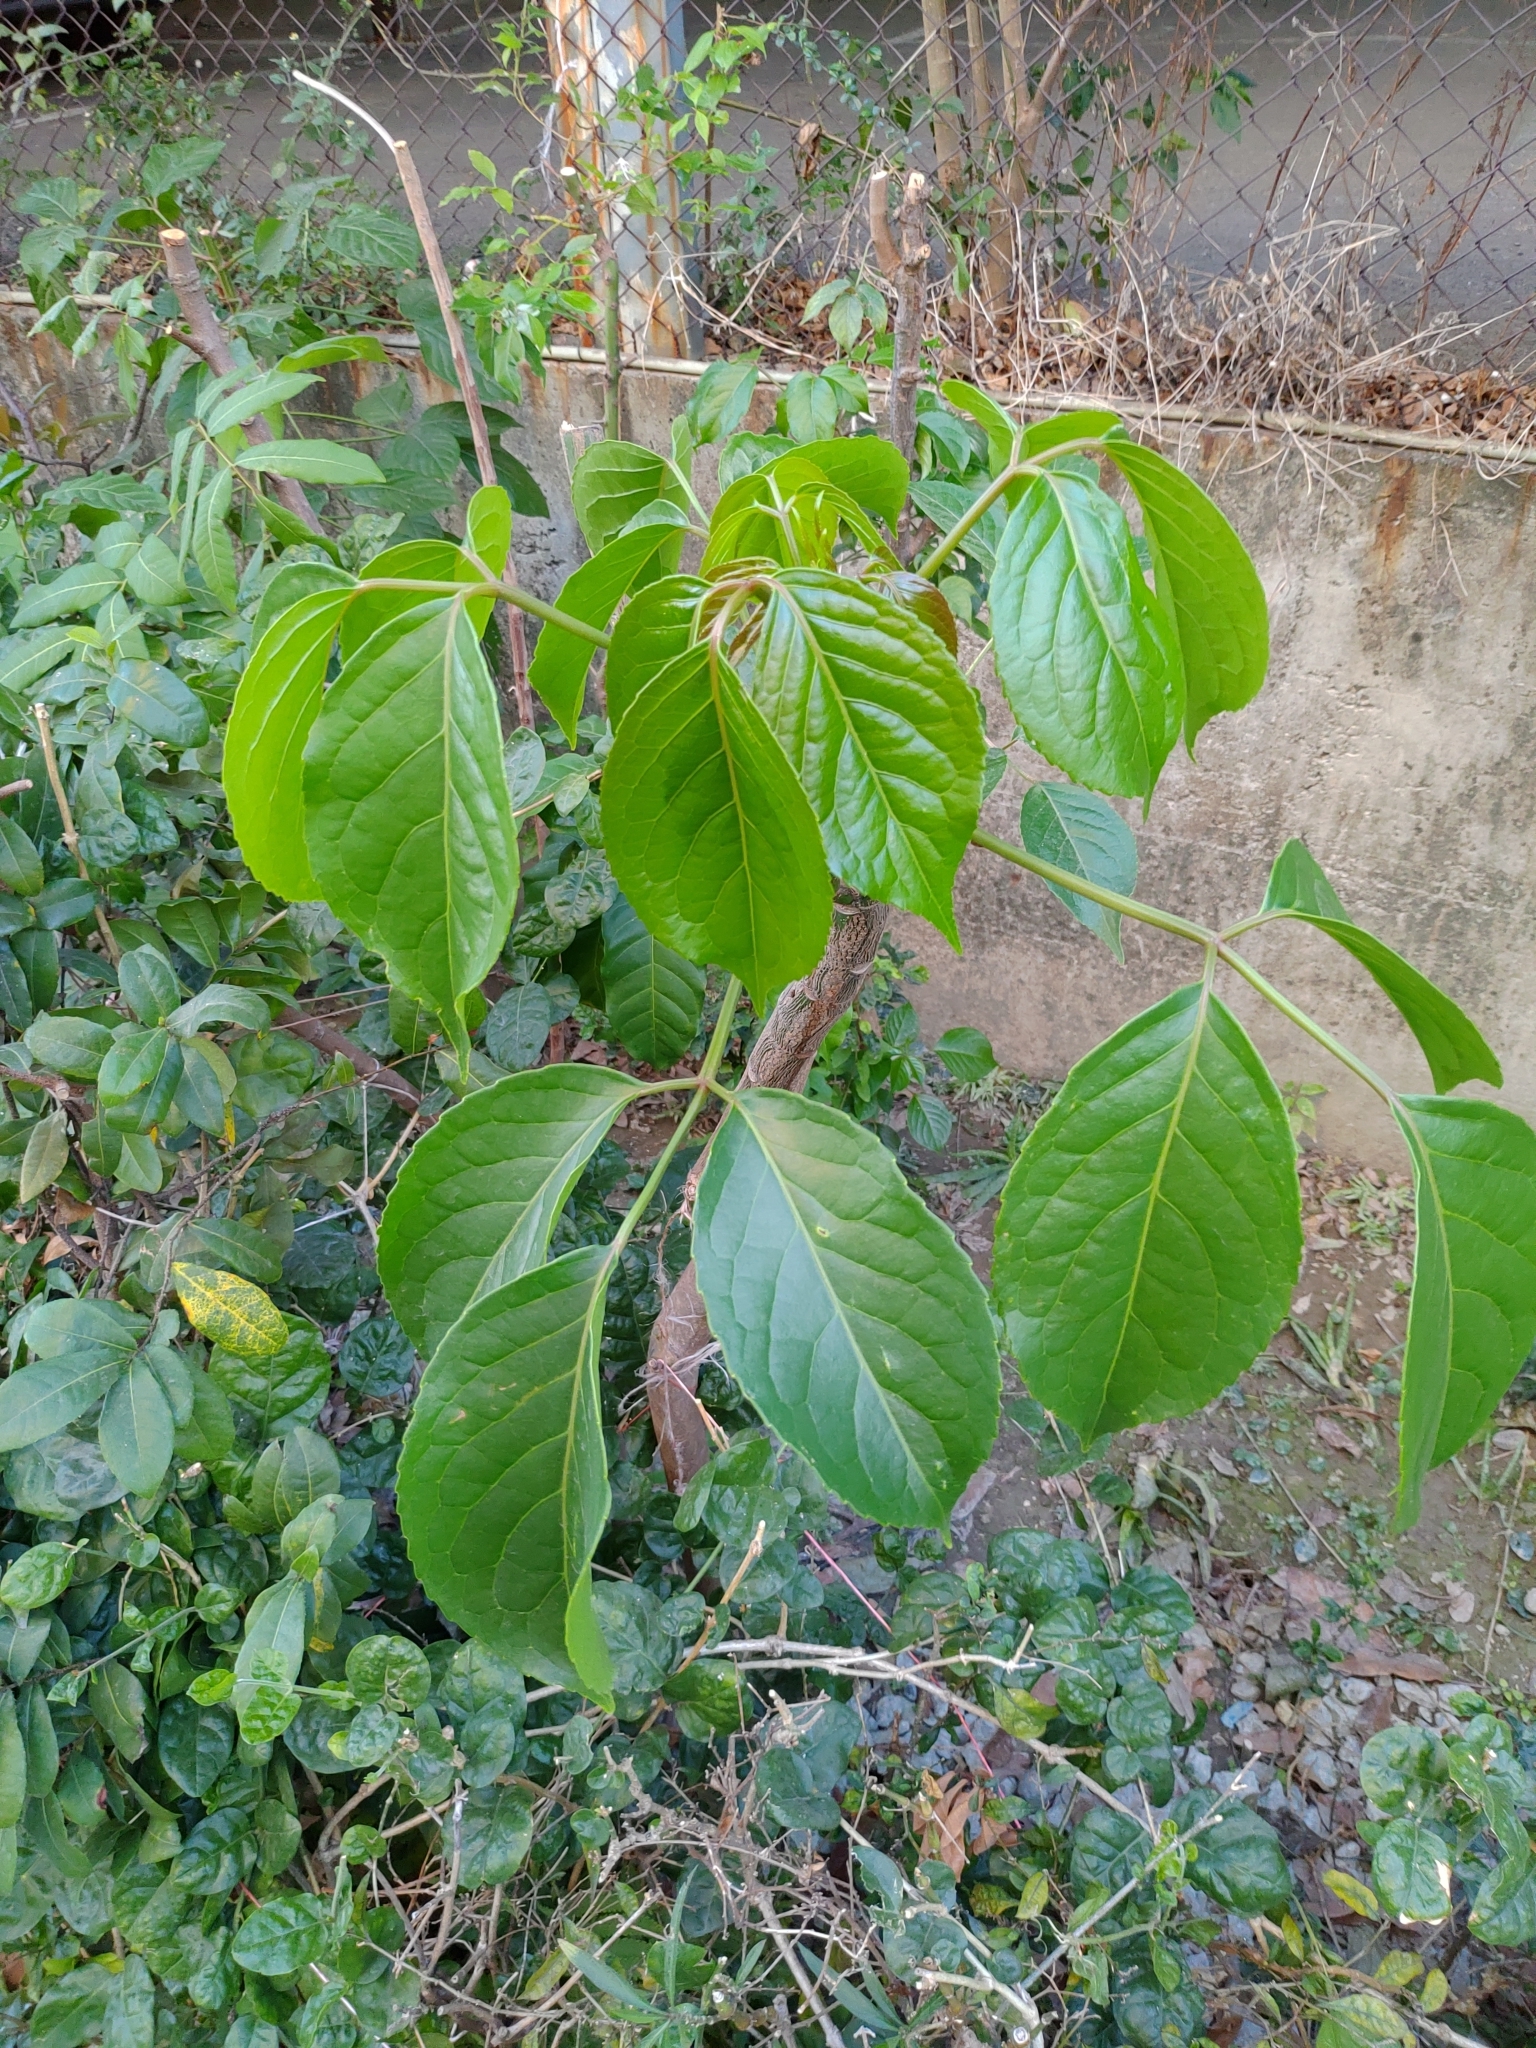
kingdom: Plantae
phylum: Tracheophyta
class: Magnoliopsida
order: Malpighiales
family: Phyllanthaceae
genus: Bischofia
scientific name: Bischofia javanica
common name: Javanese bishopwood
